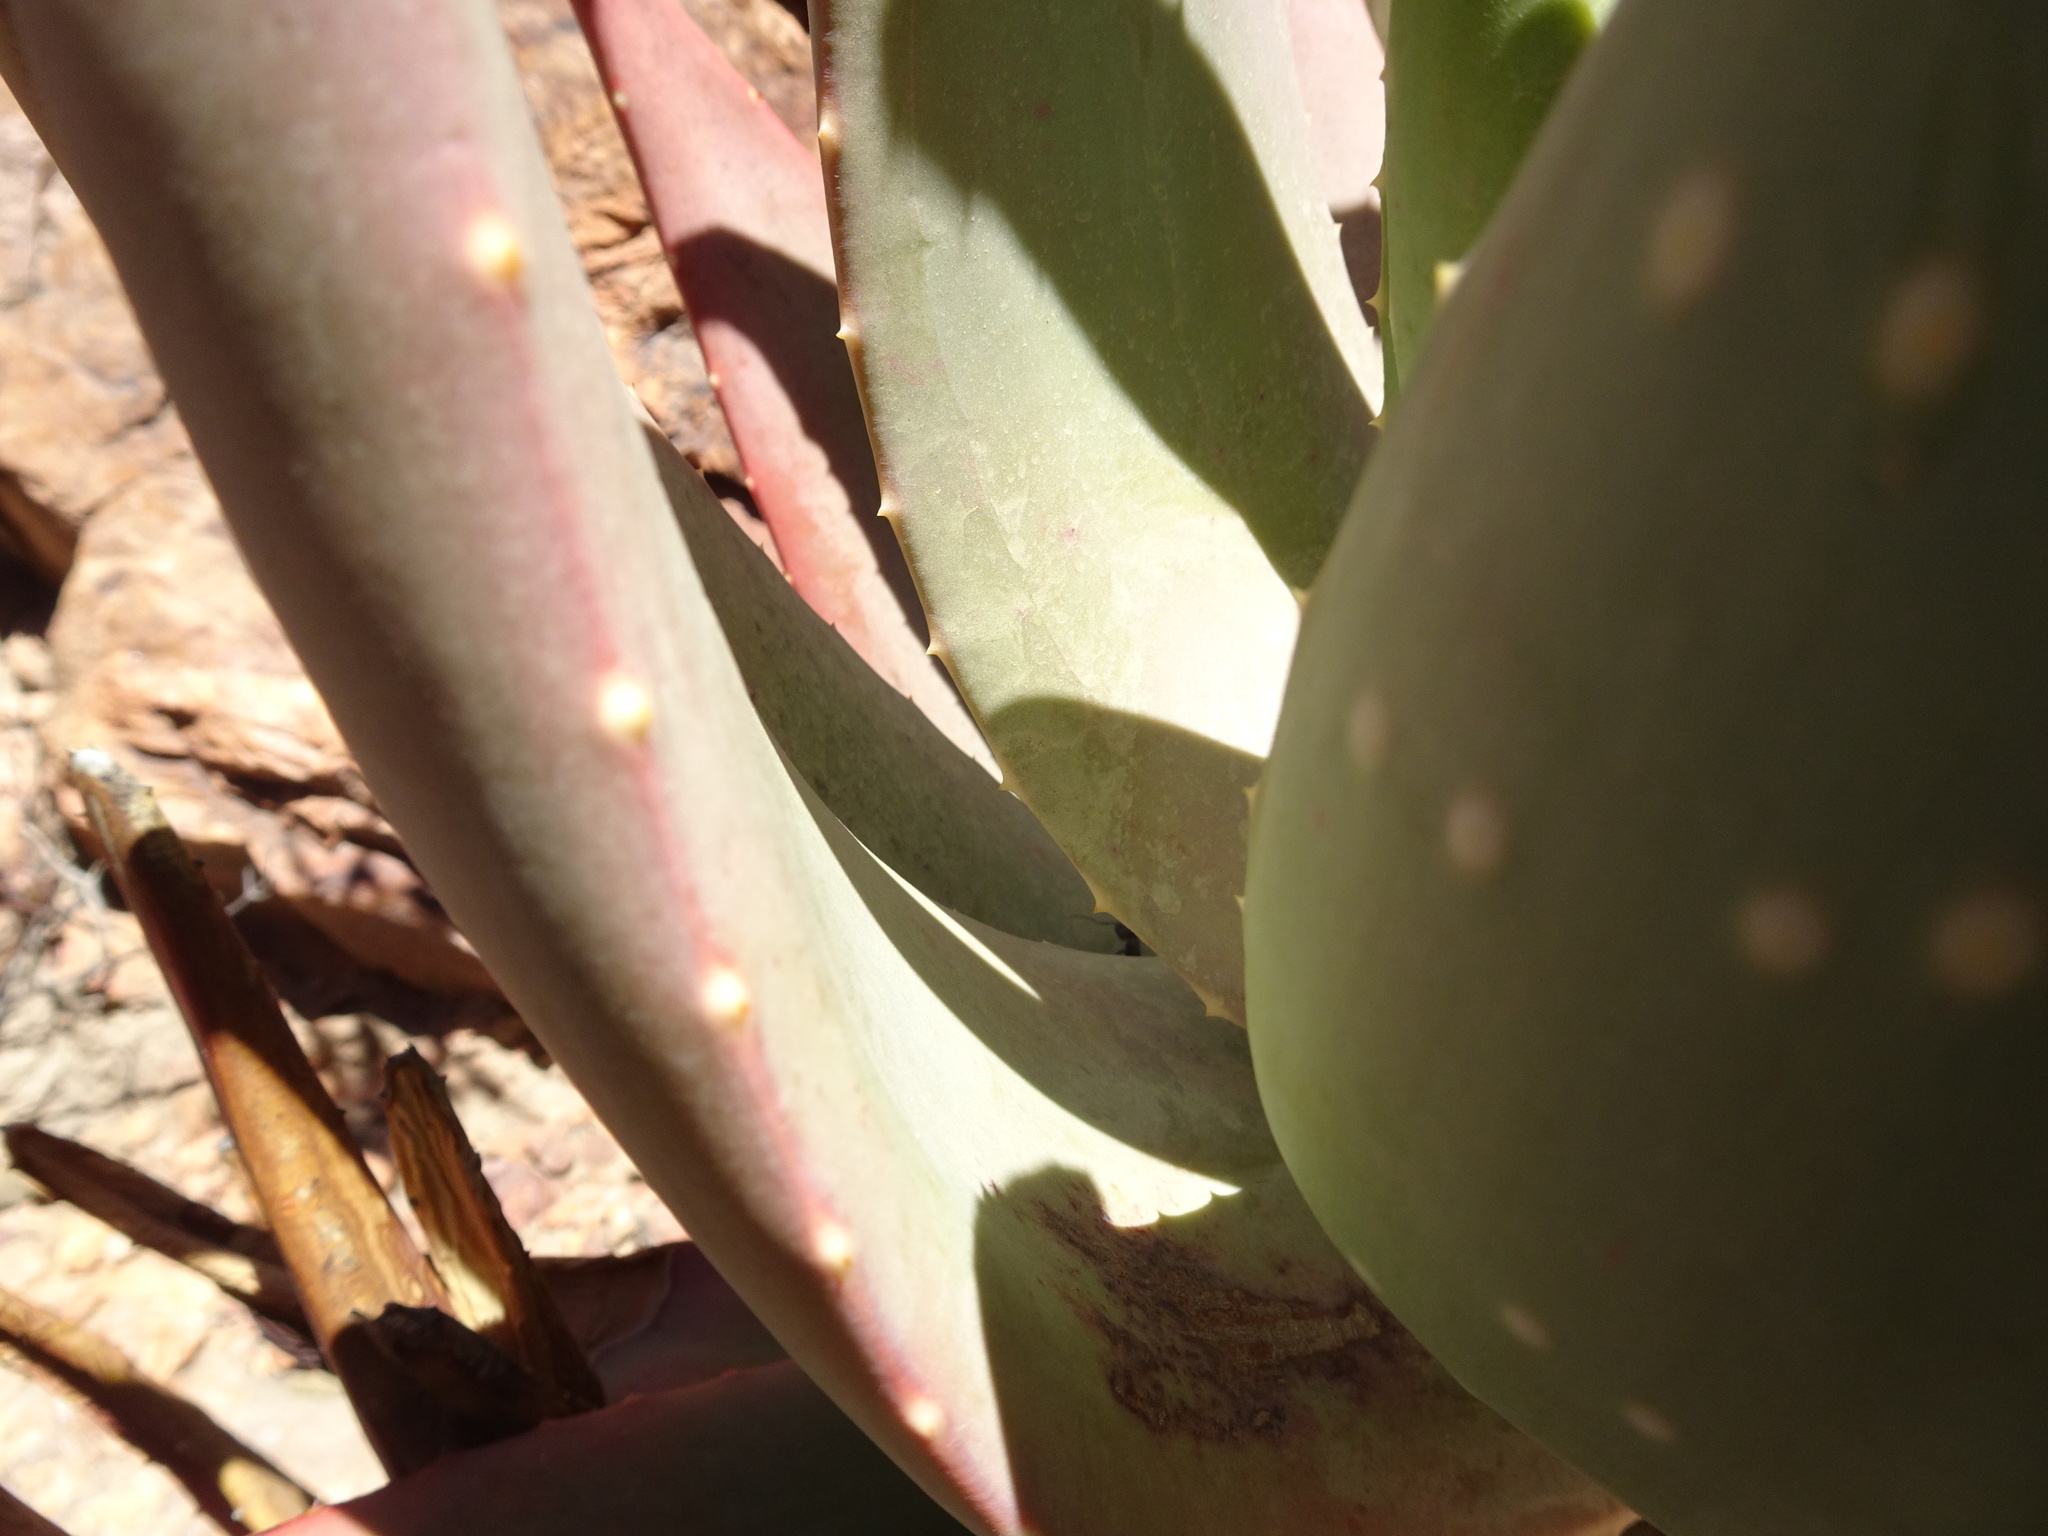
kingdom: Plantae
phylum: Tracheophyta
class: Liliopsida
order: Asparagales
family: Asphodelaceae
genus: Aloe
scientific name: Aloe comptonii
